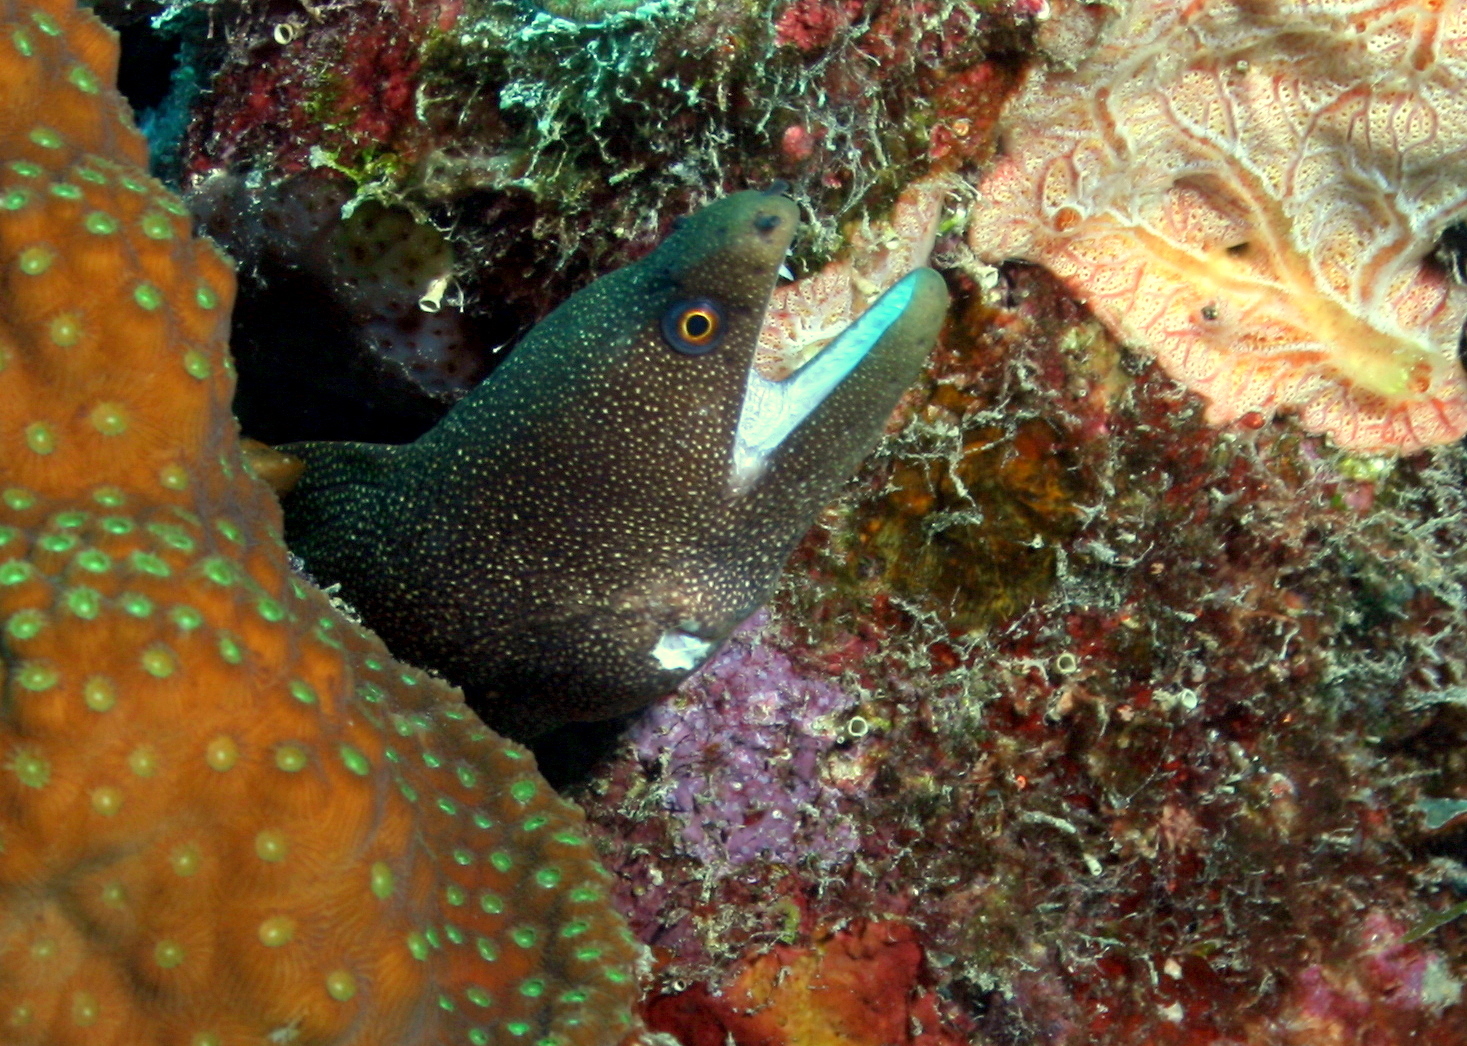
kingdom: Animalia
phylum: Chordata
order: Anguilliformes
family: Muraenidae
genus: Gymnothorax
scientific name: Gymnothorax miliaris
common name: Goldentail moray
